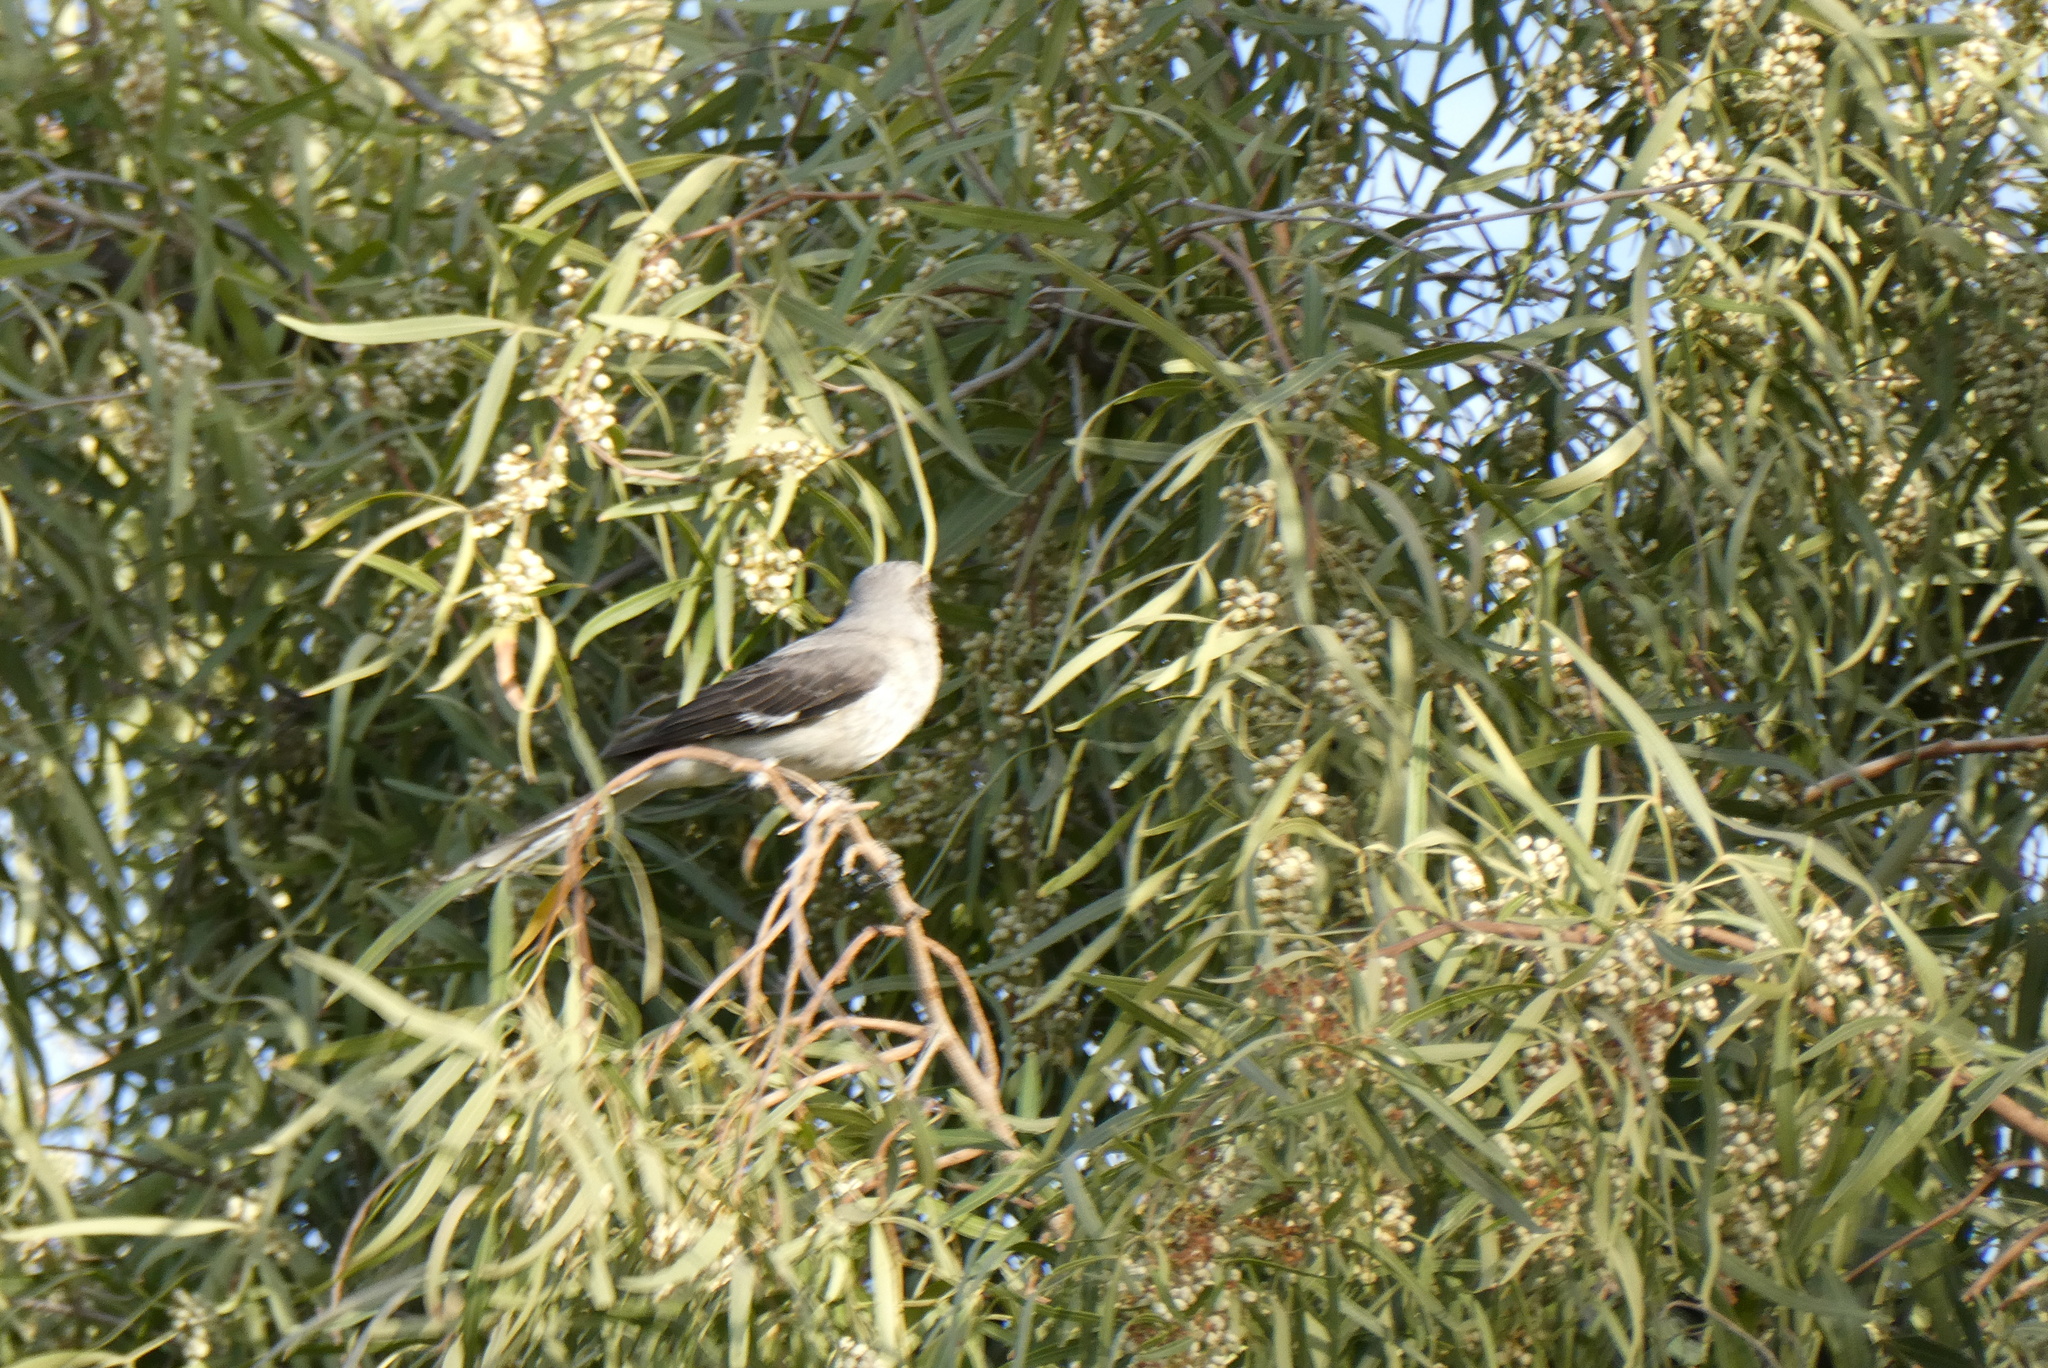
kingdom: Animalia
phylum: Chordata
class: Aves
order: Passeriformes
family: Mimidae
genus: Mimus
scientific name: Mimus polyglottos
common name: Northern mockingbird
